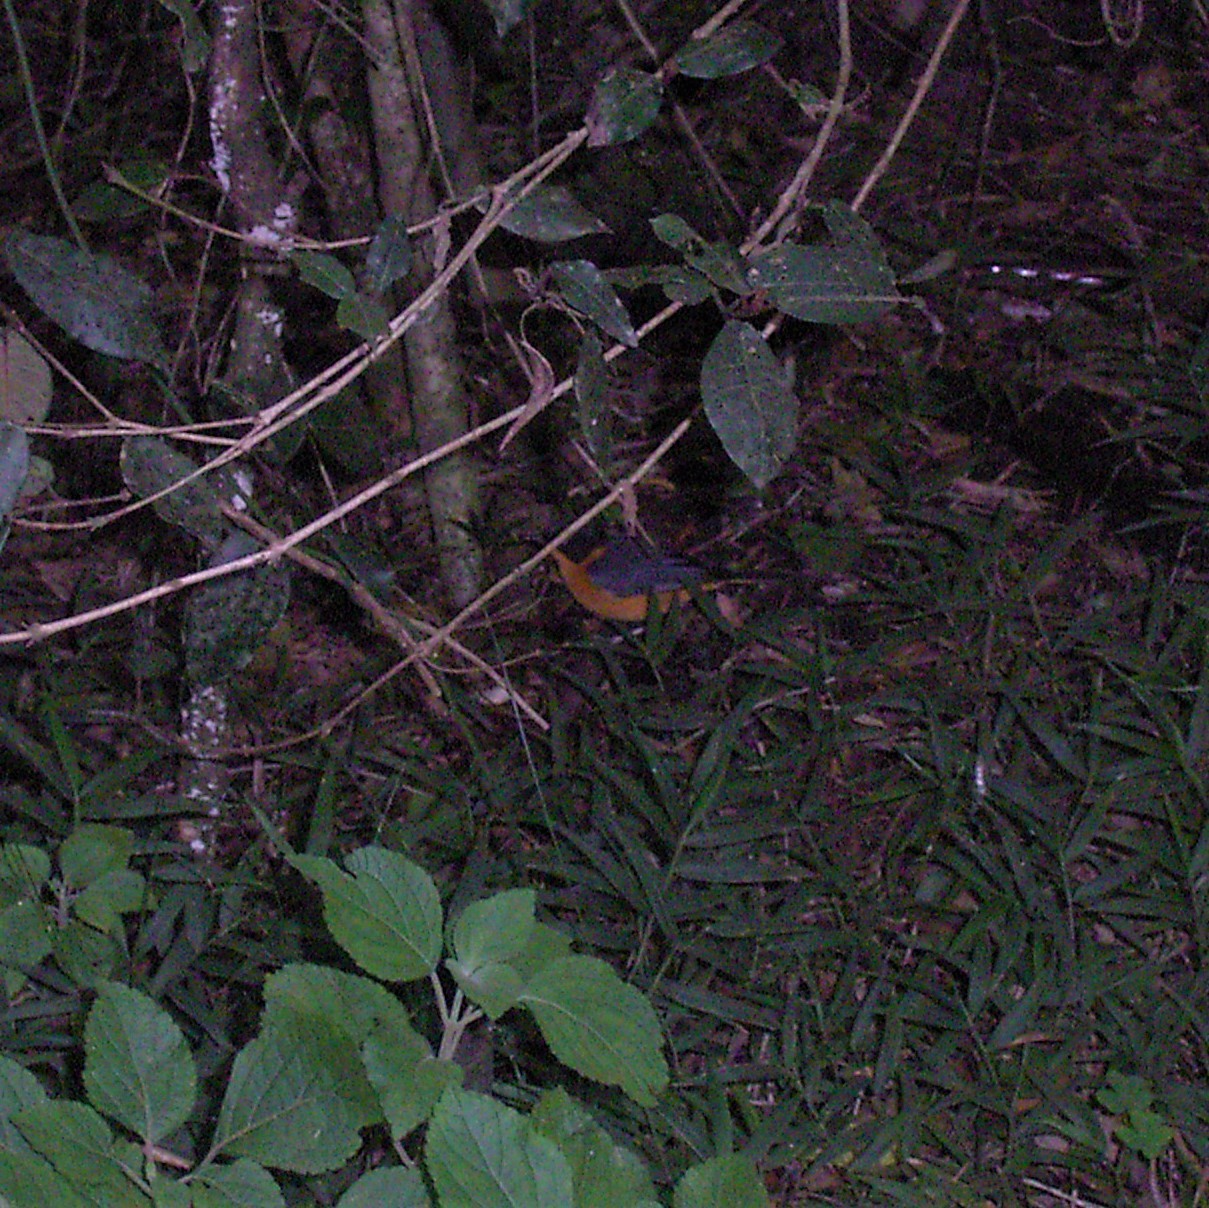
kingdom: Animalia
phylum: Chordata
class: Aves
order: Passeriformes
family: Muscicapidae
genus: Cossypha
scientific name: Cossypha dichroa
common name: Chorister robin-chat
